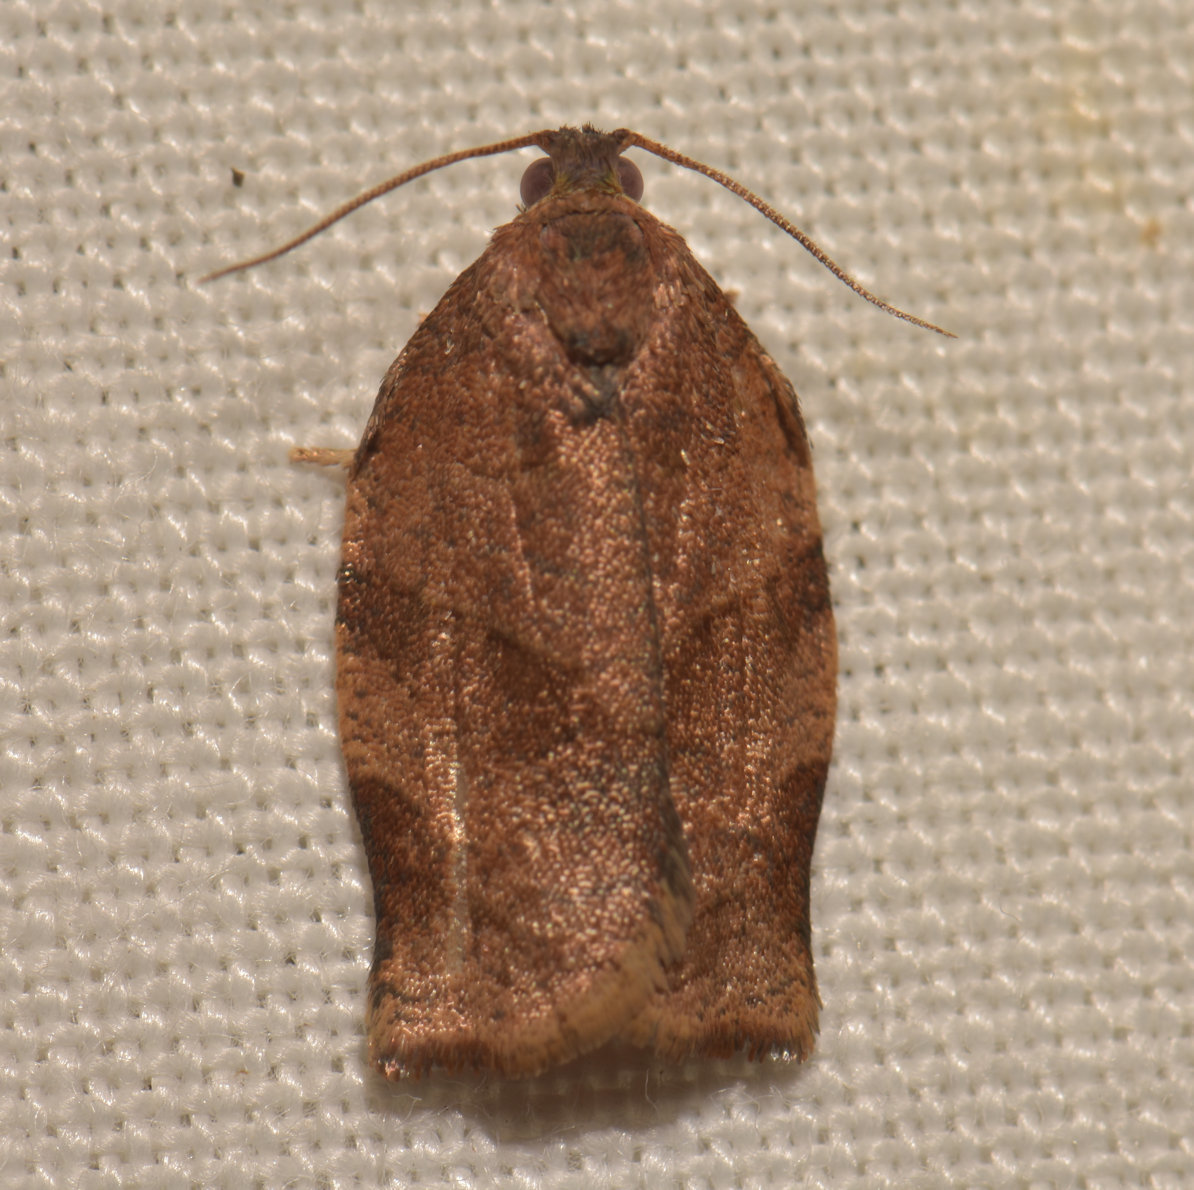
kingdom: Animalia
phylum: Arthropoda
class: Insecta
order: Lepidoptera
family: Tortricidae
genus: Choristoneura
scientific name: Choristoneura rosaceana
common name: Oblique-banded leafroller moth
